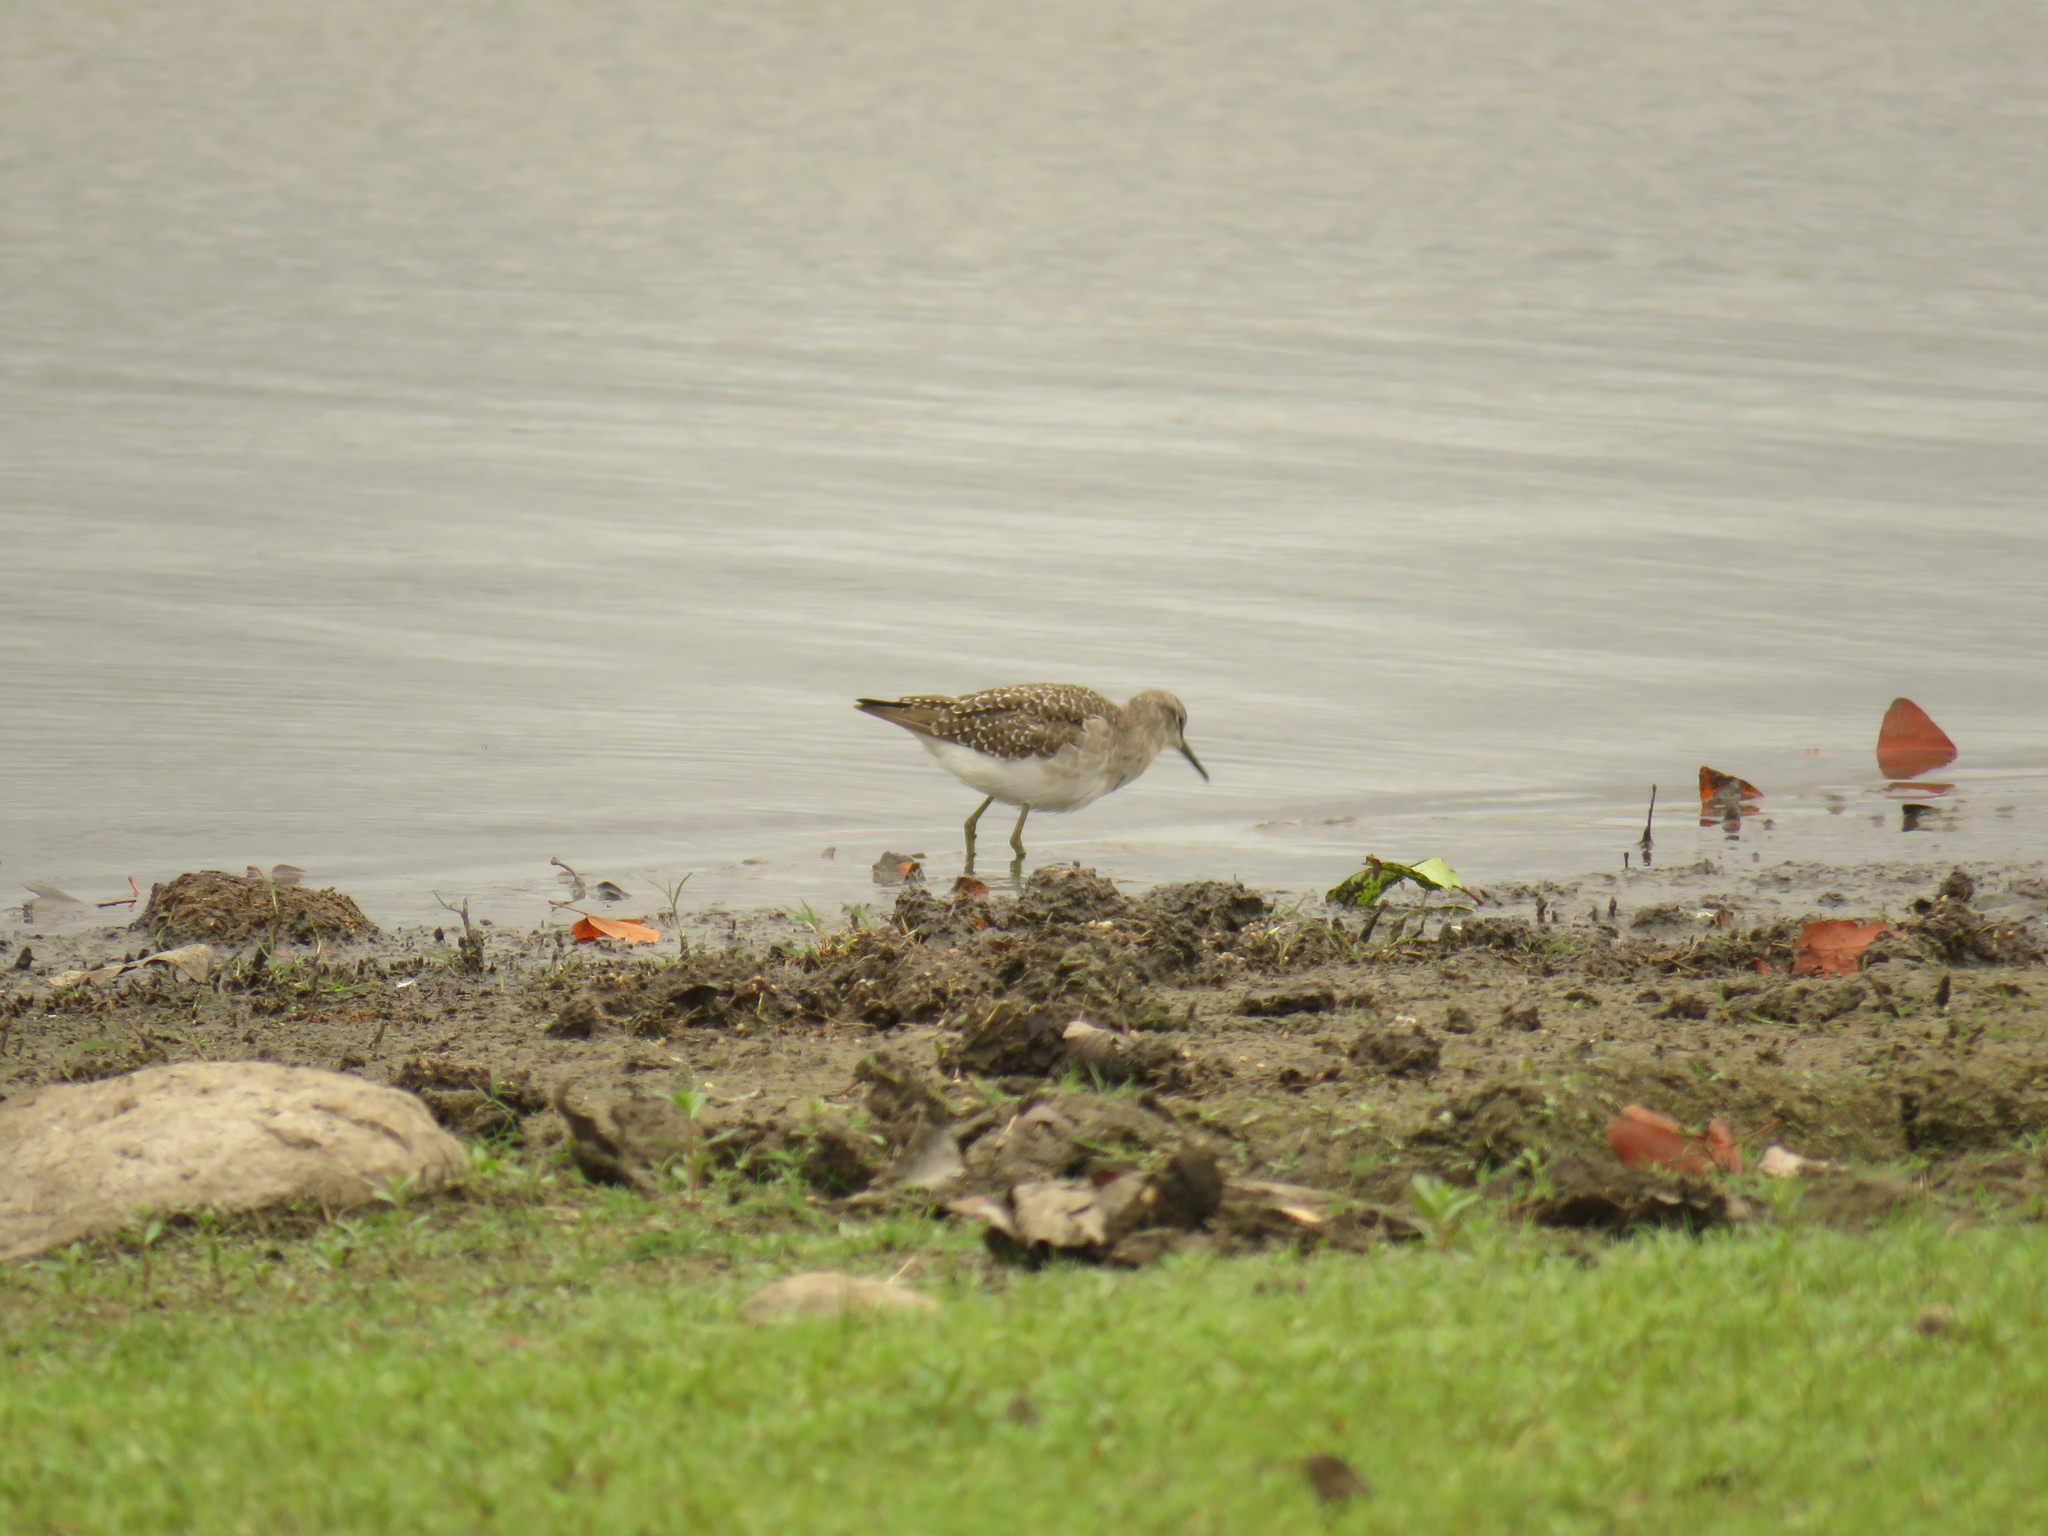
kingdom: Animalia
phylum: Chordata
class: Aves
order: Charadriiformes
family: Scolopacidae
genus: Tringa
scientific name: Tringa glareola
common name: Wood sandpiper
